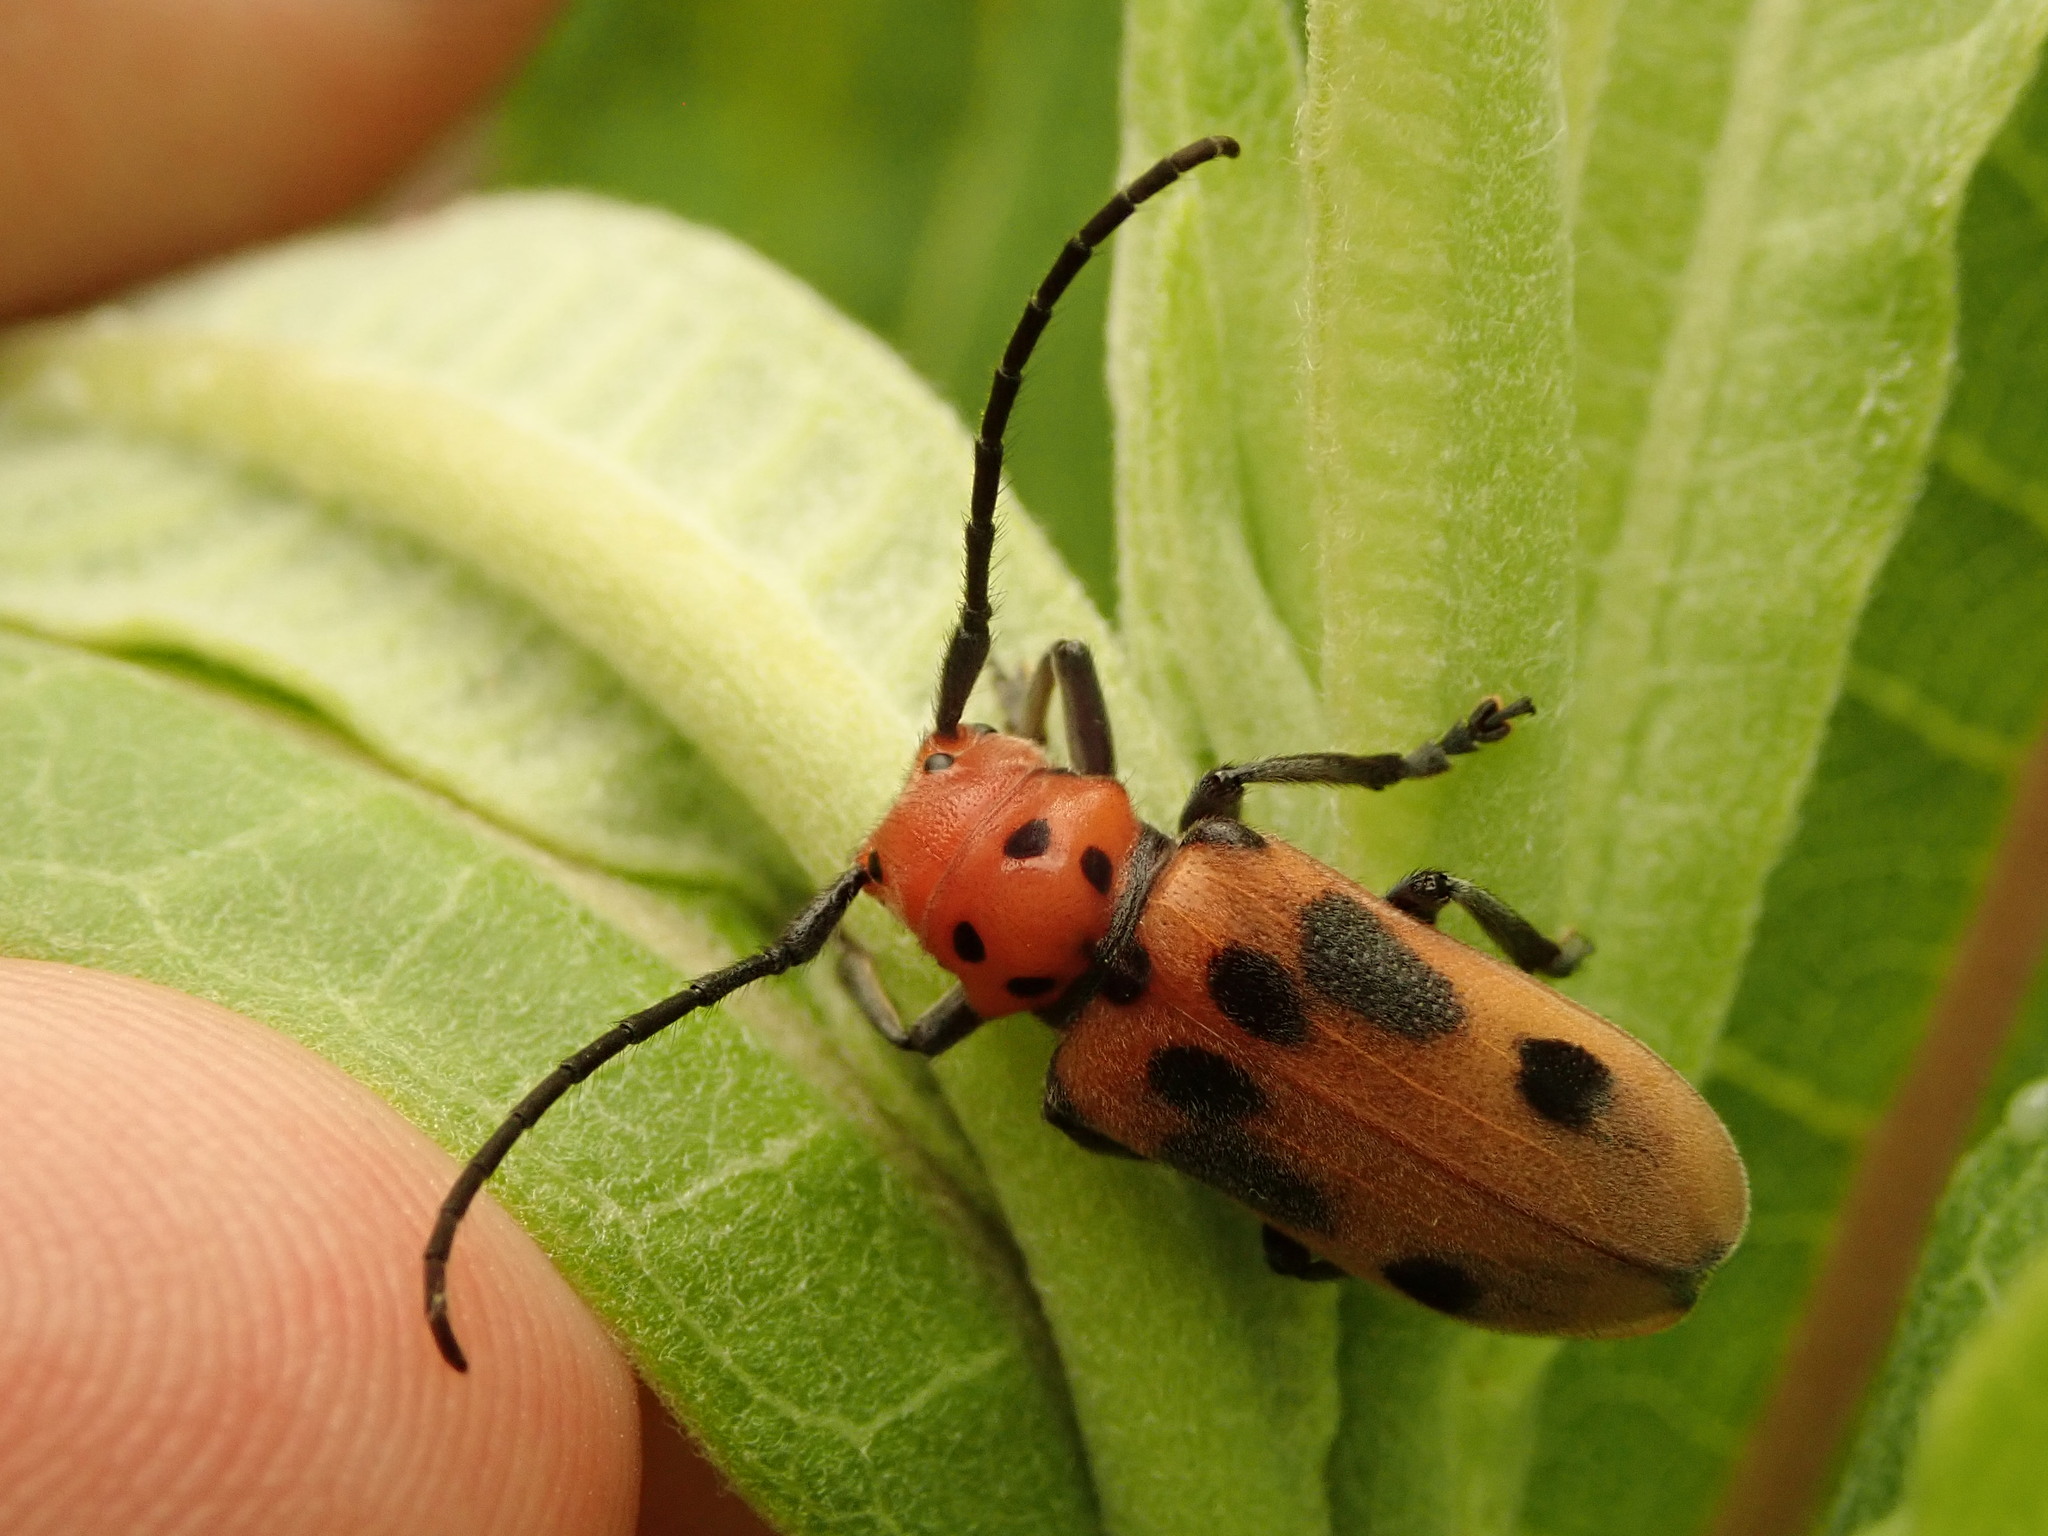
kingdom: Animalia
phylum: Arthropoda
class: Insecta
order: Coleoptera
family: Cerambycidae
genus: Tetraopes
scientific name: Tetraopes tetrophthalmus
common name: Red milkweed beetle
